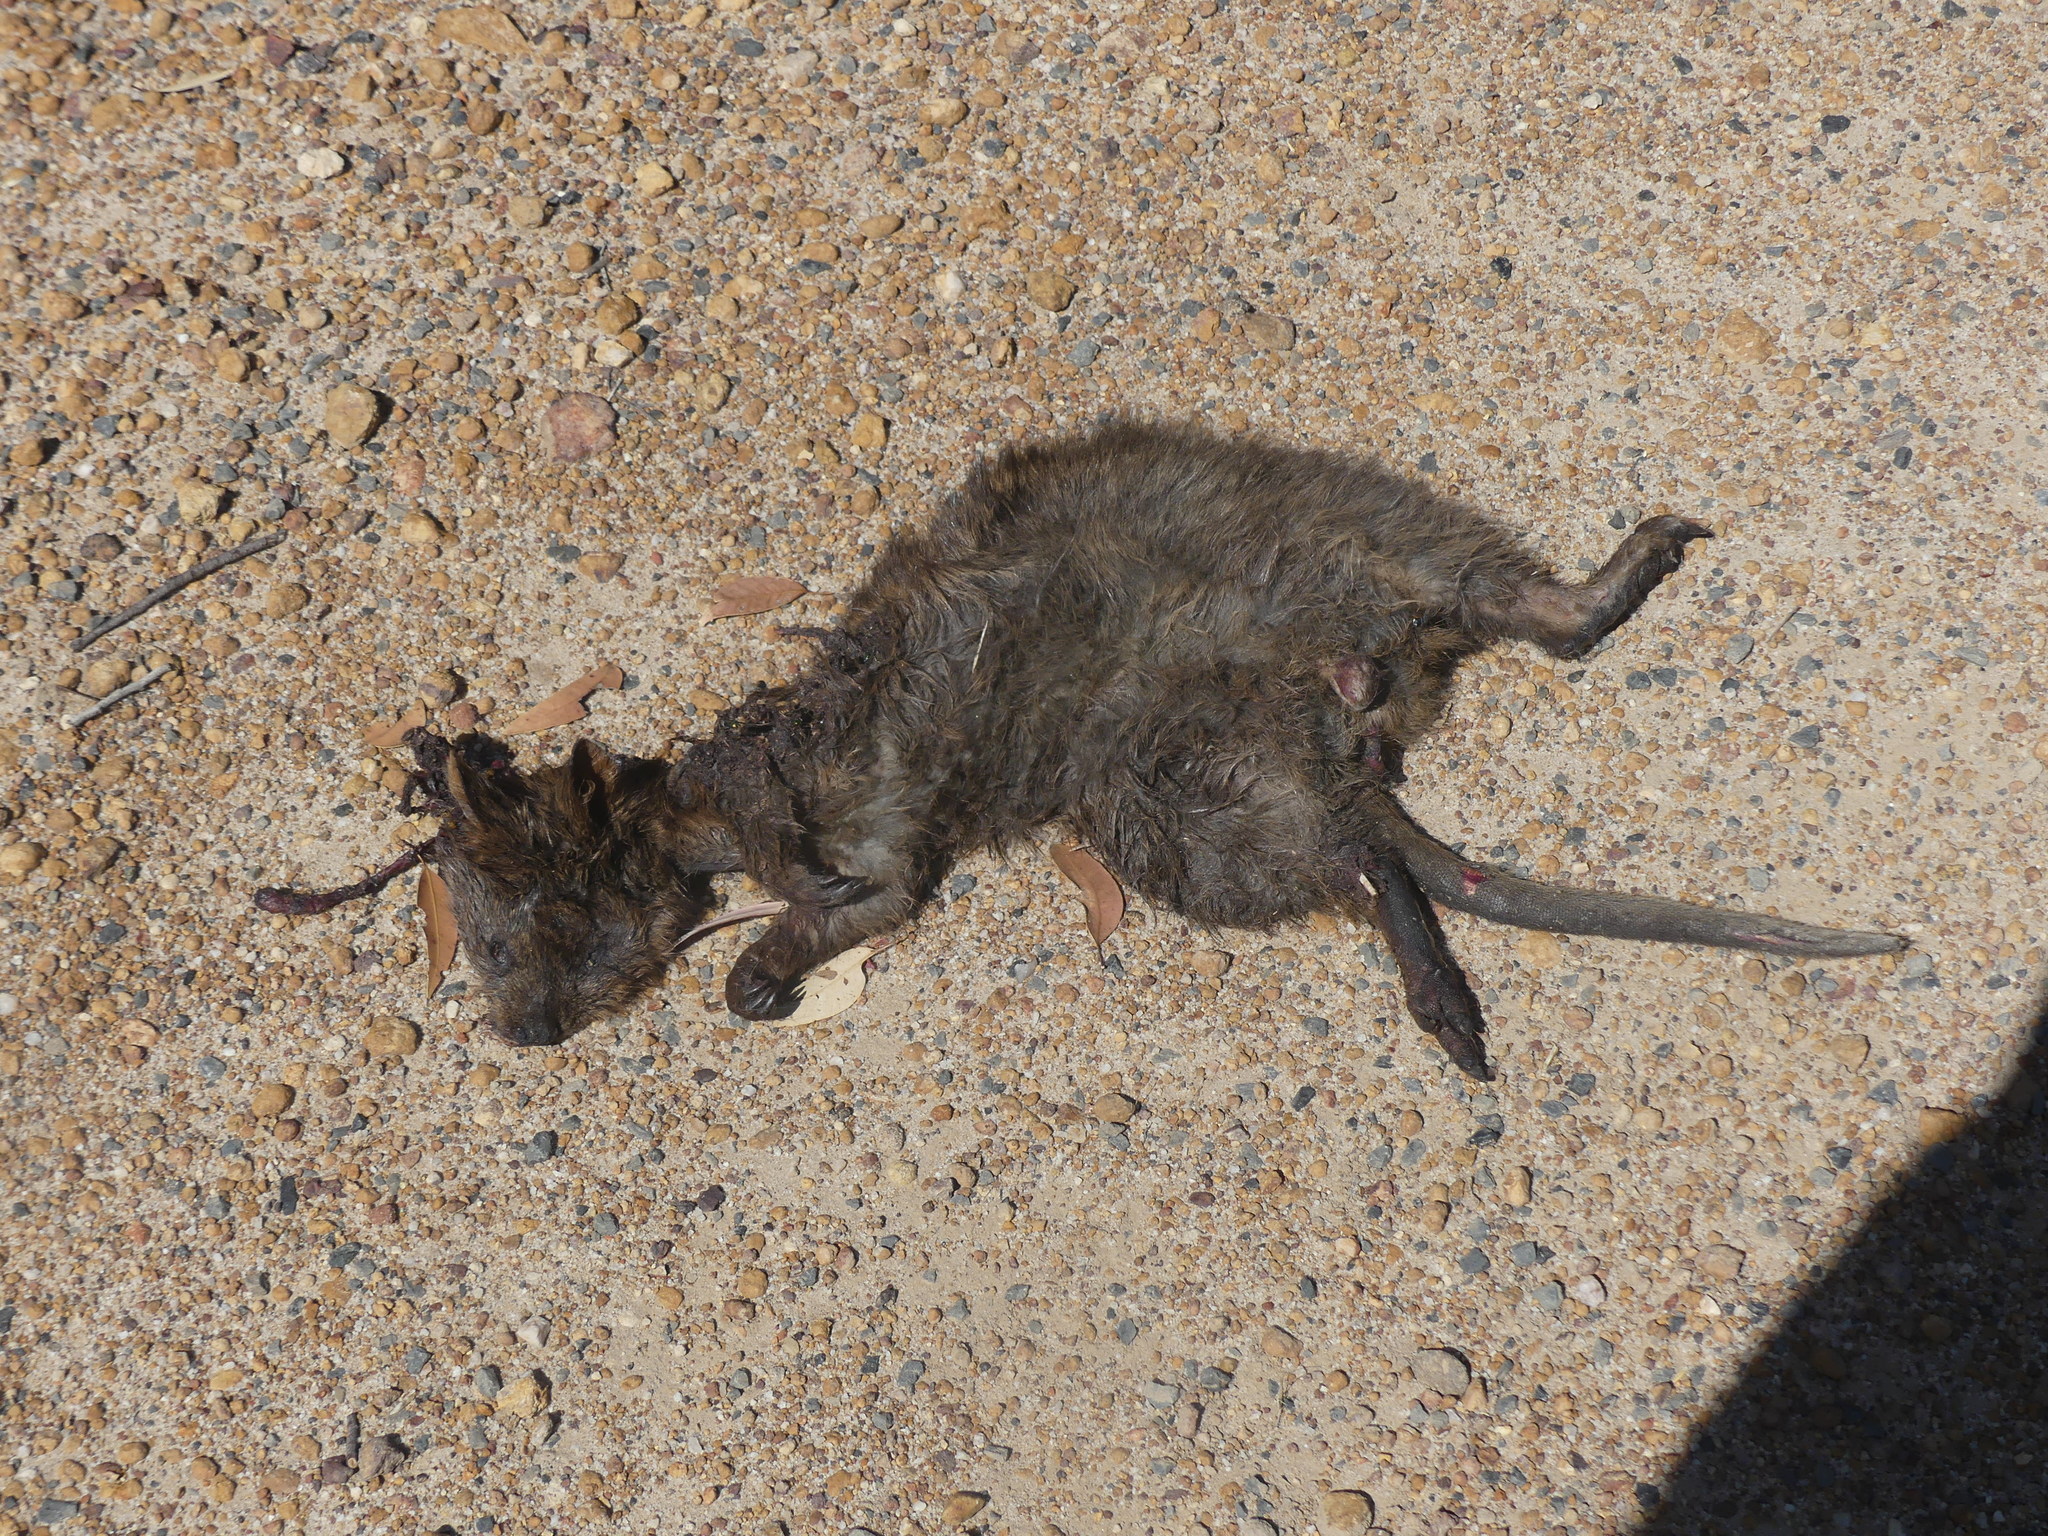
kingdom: Animalia
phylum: Chordata
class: Mammalia
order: Diprotodontia
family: Macropodidae
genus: Setonix
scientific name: Setonix brachyurus
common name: Quokka
